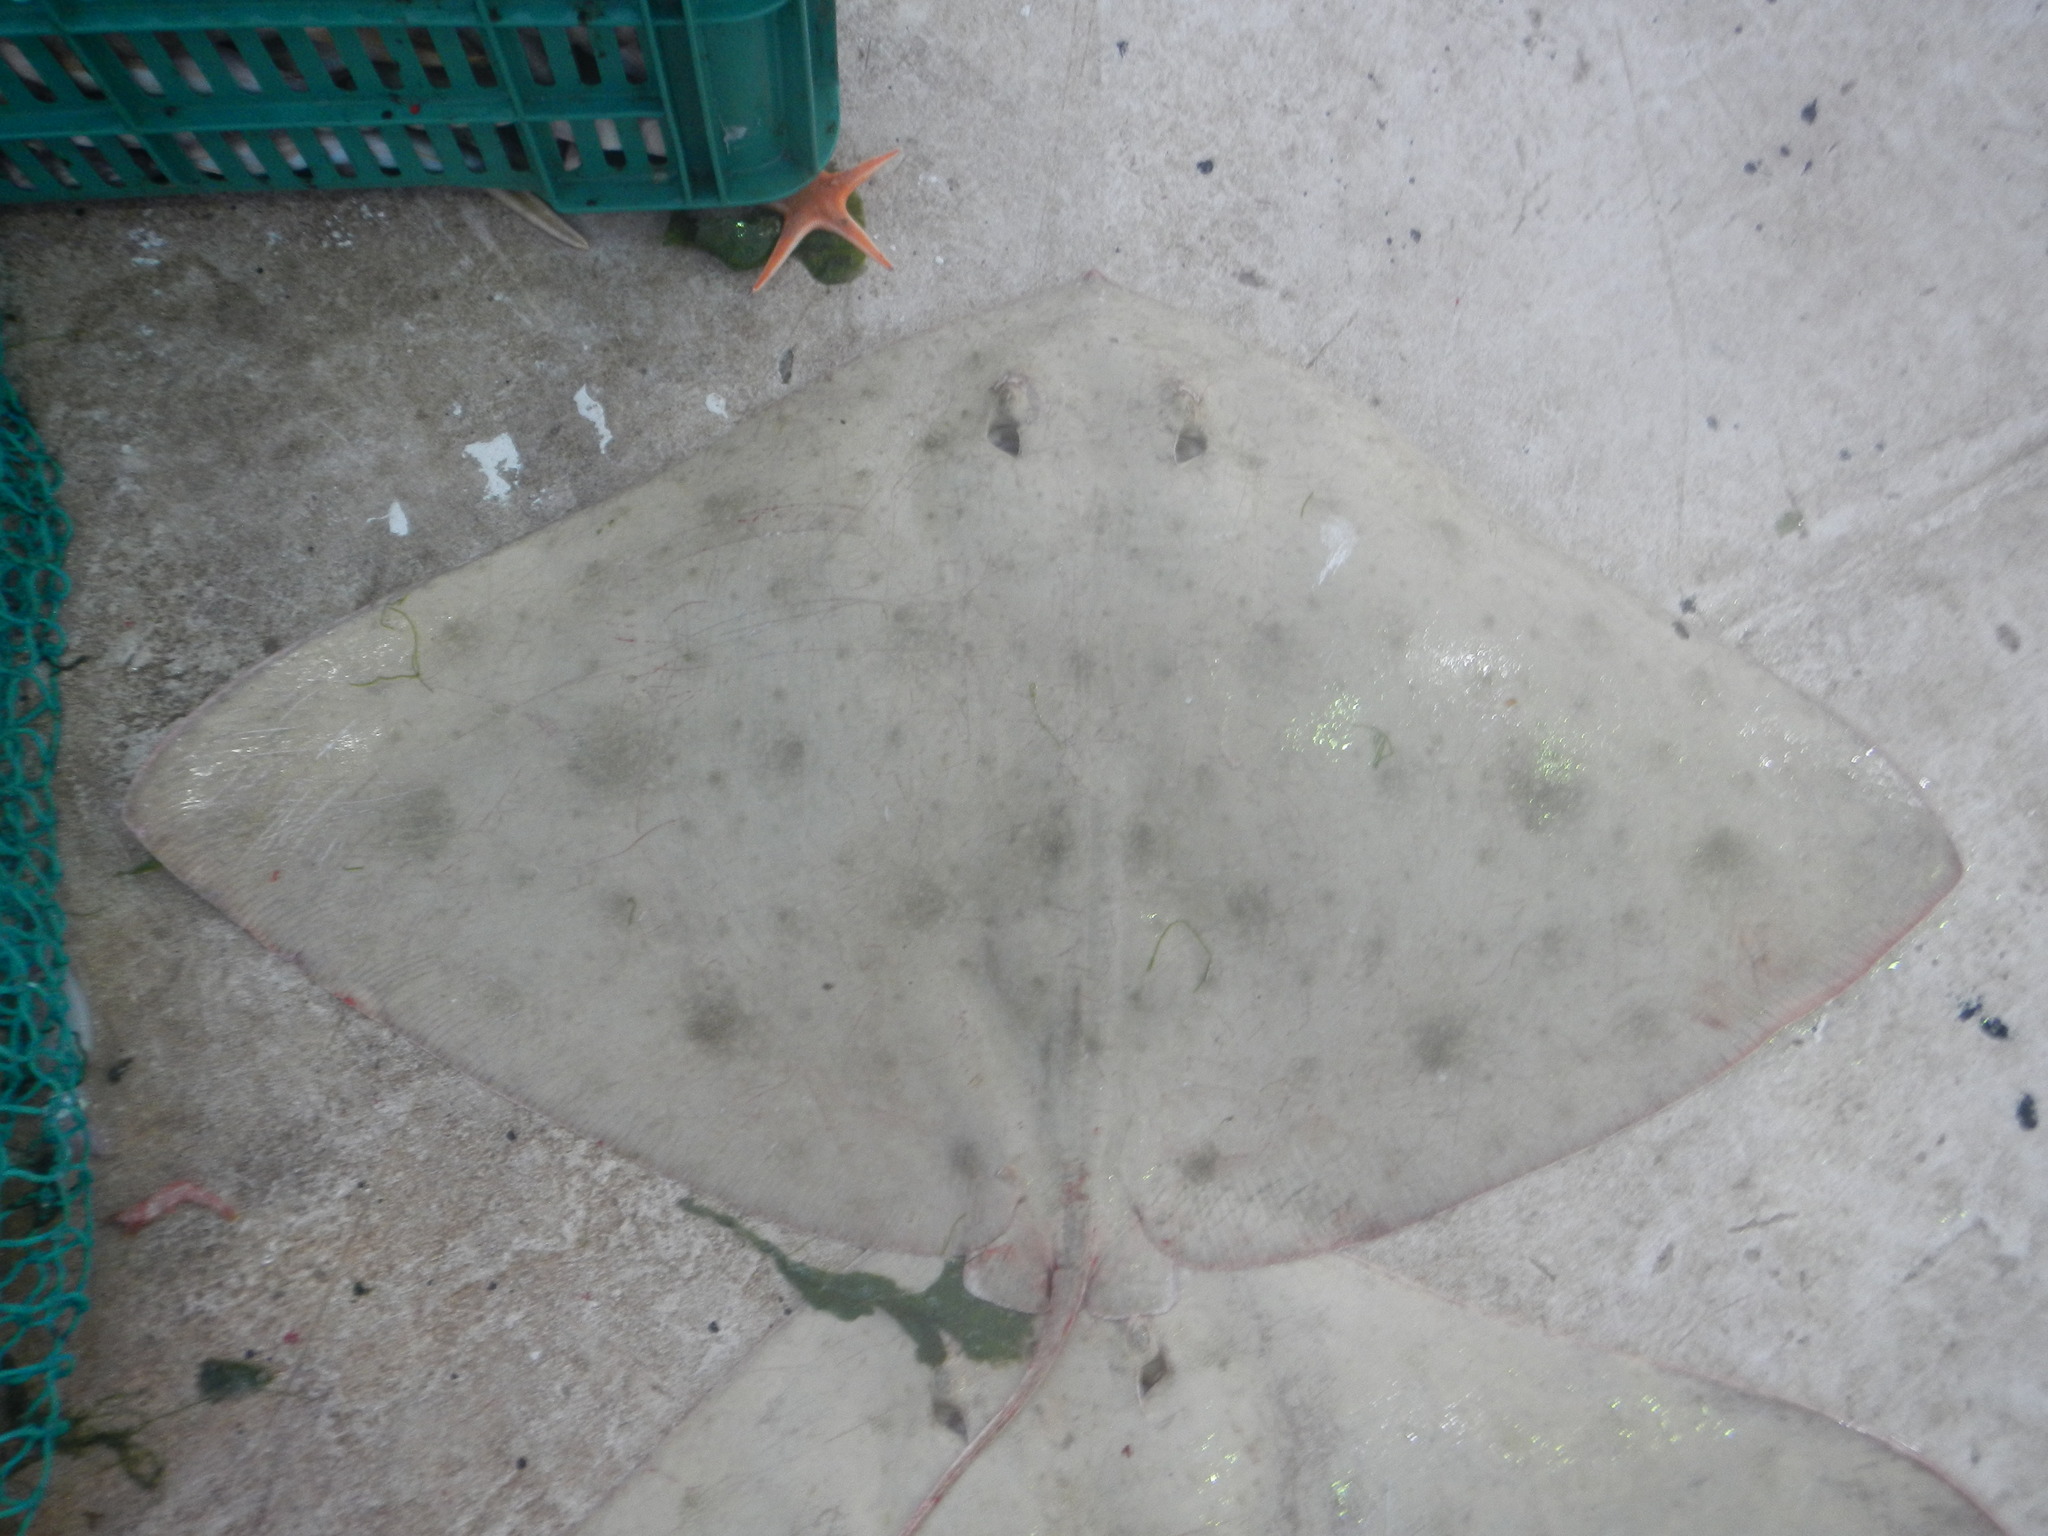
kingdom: Animalia
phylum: Chordata
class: Elasmobranchii
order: Myliobatiformes
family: Gymnuridae
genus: Gymnura
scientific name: Gymnura lessae
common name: Lessa's butterfly ray
